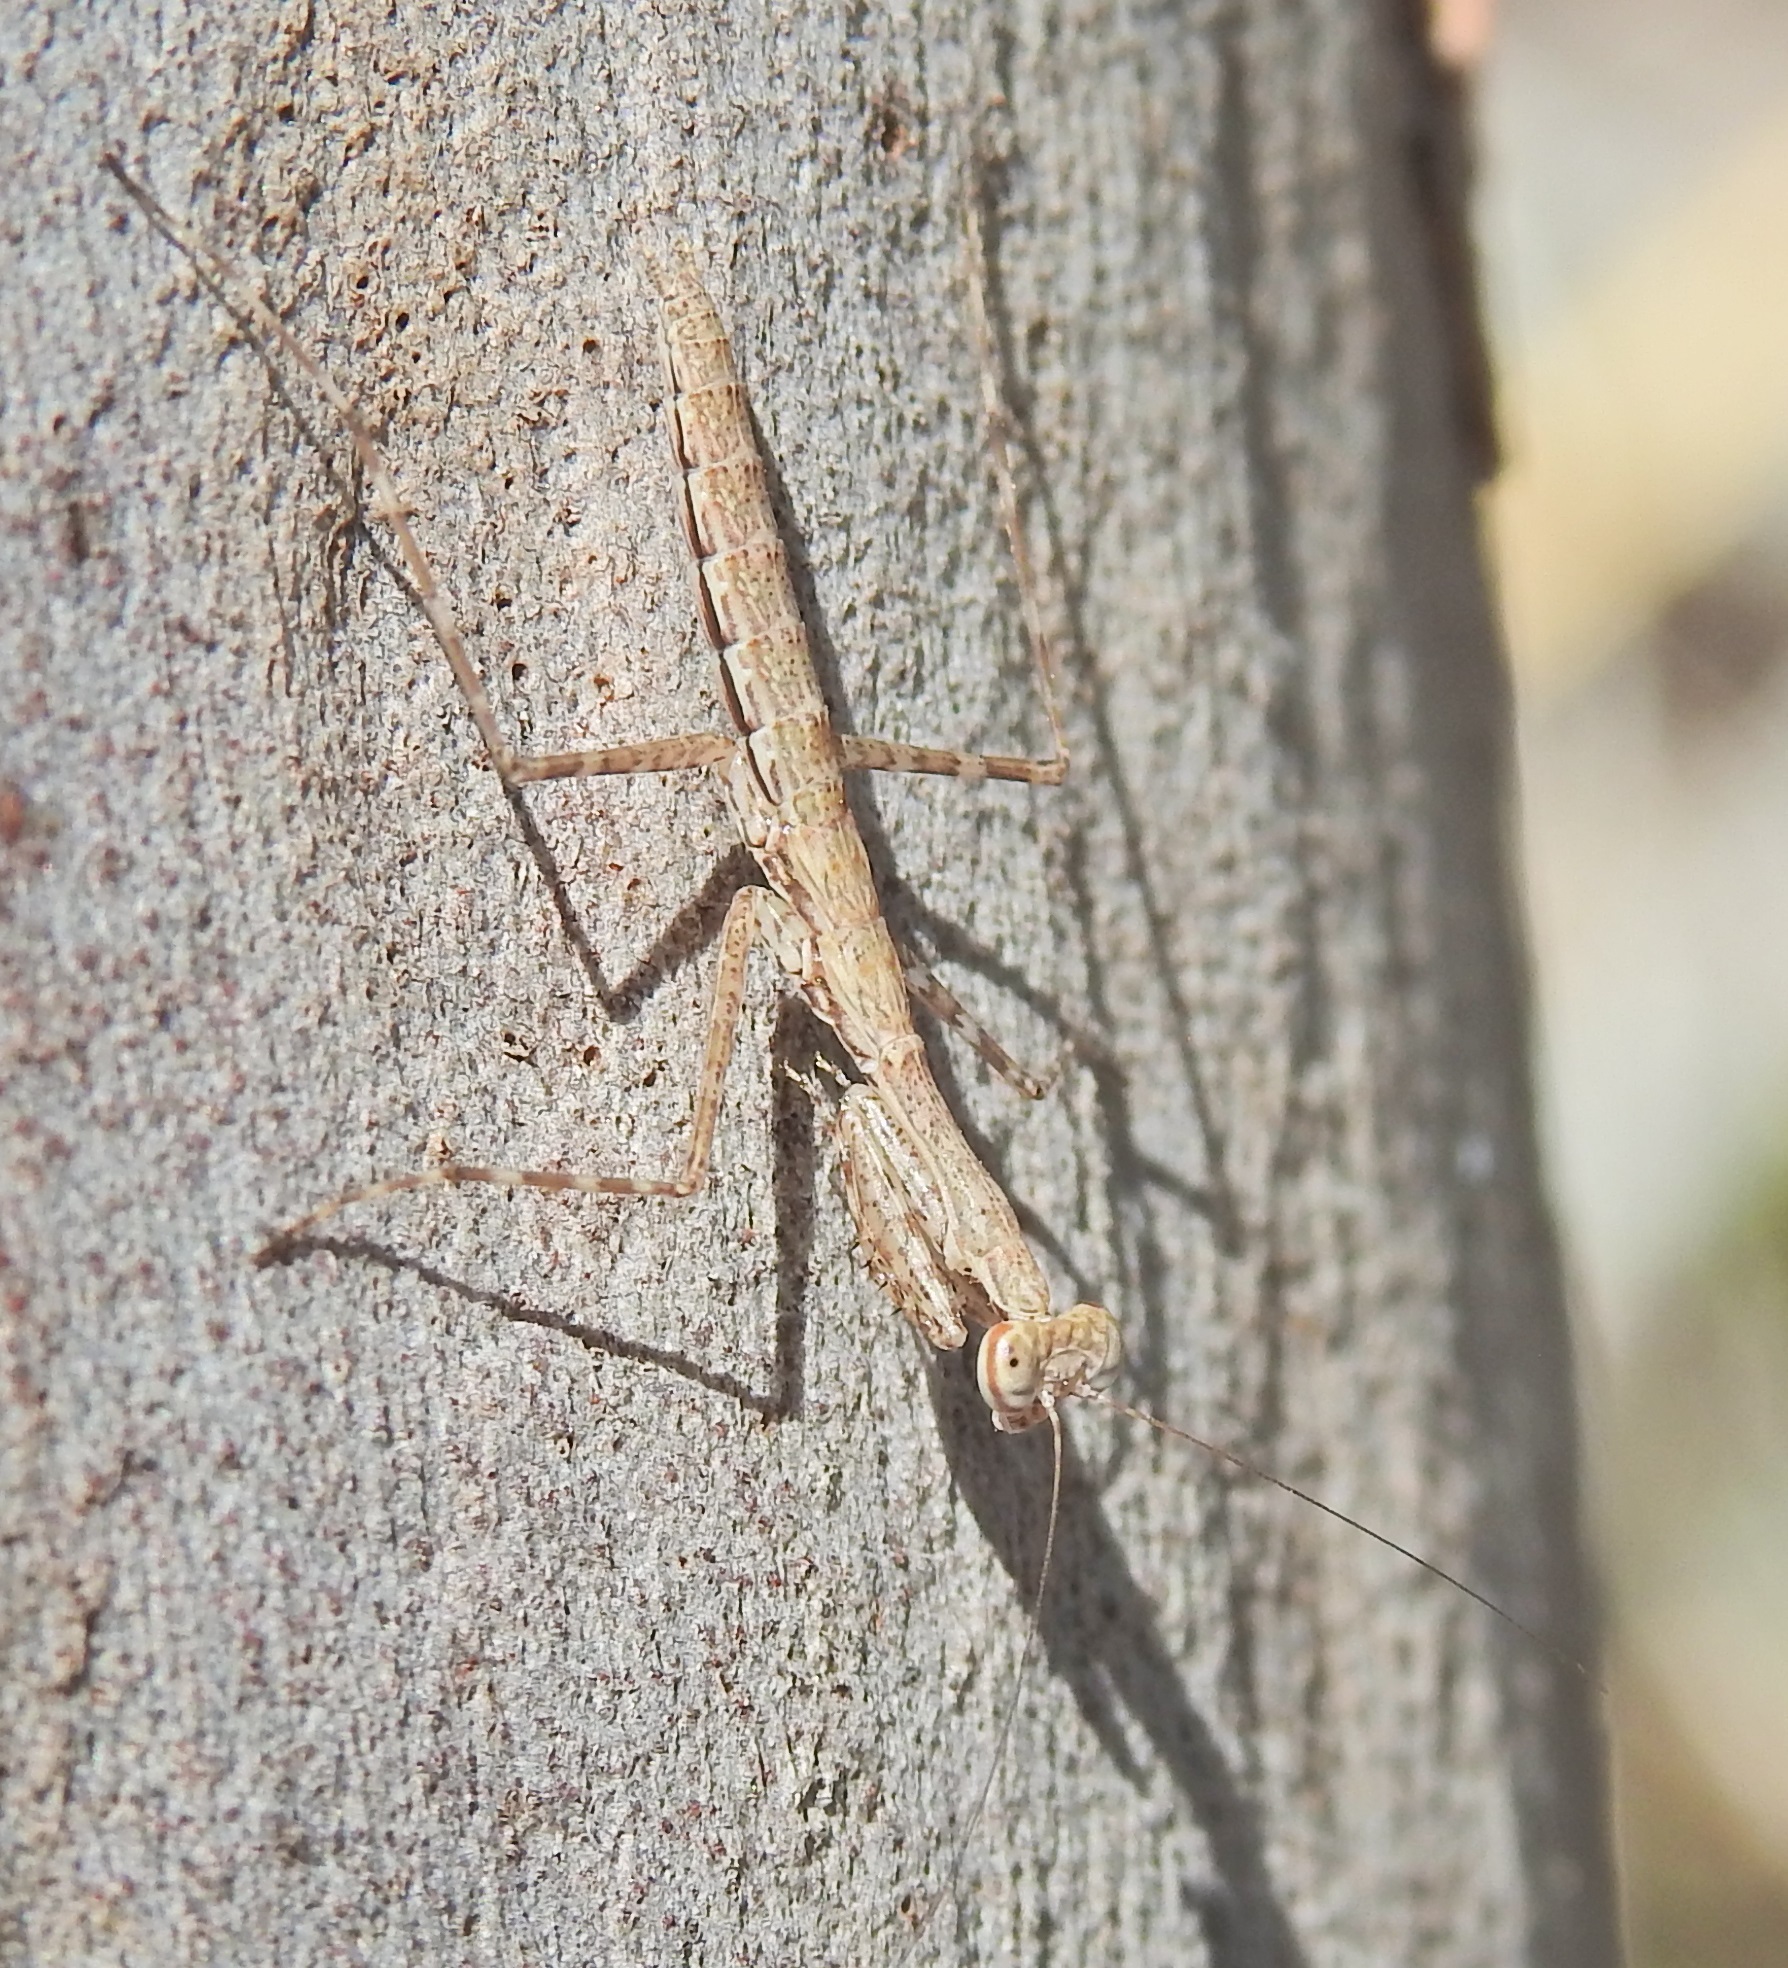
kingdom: Animalia
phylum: Arthropoda
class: Insecta
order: Mantodea
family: Nanomantidae
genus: Ciulfina
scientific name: Ciulfina baldersoni
